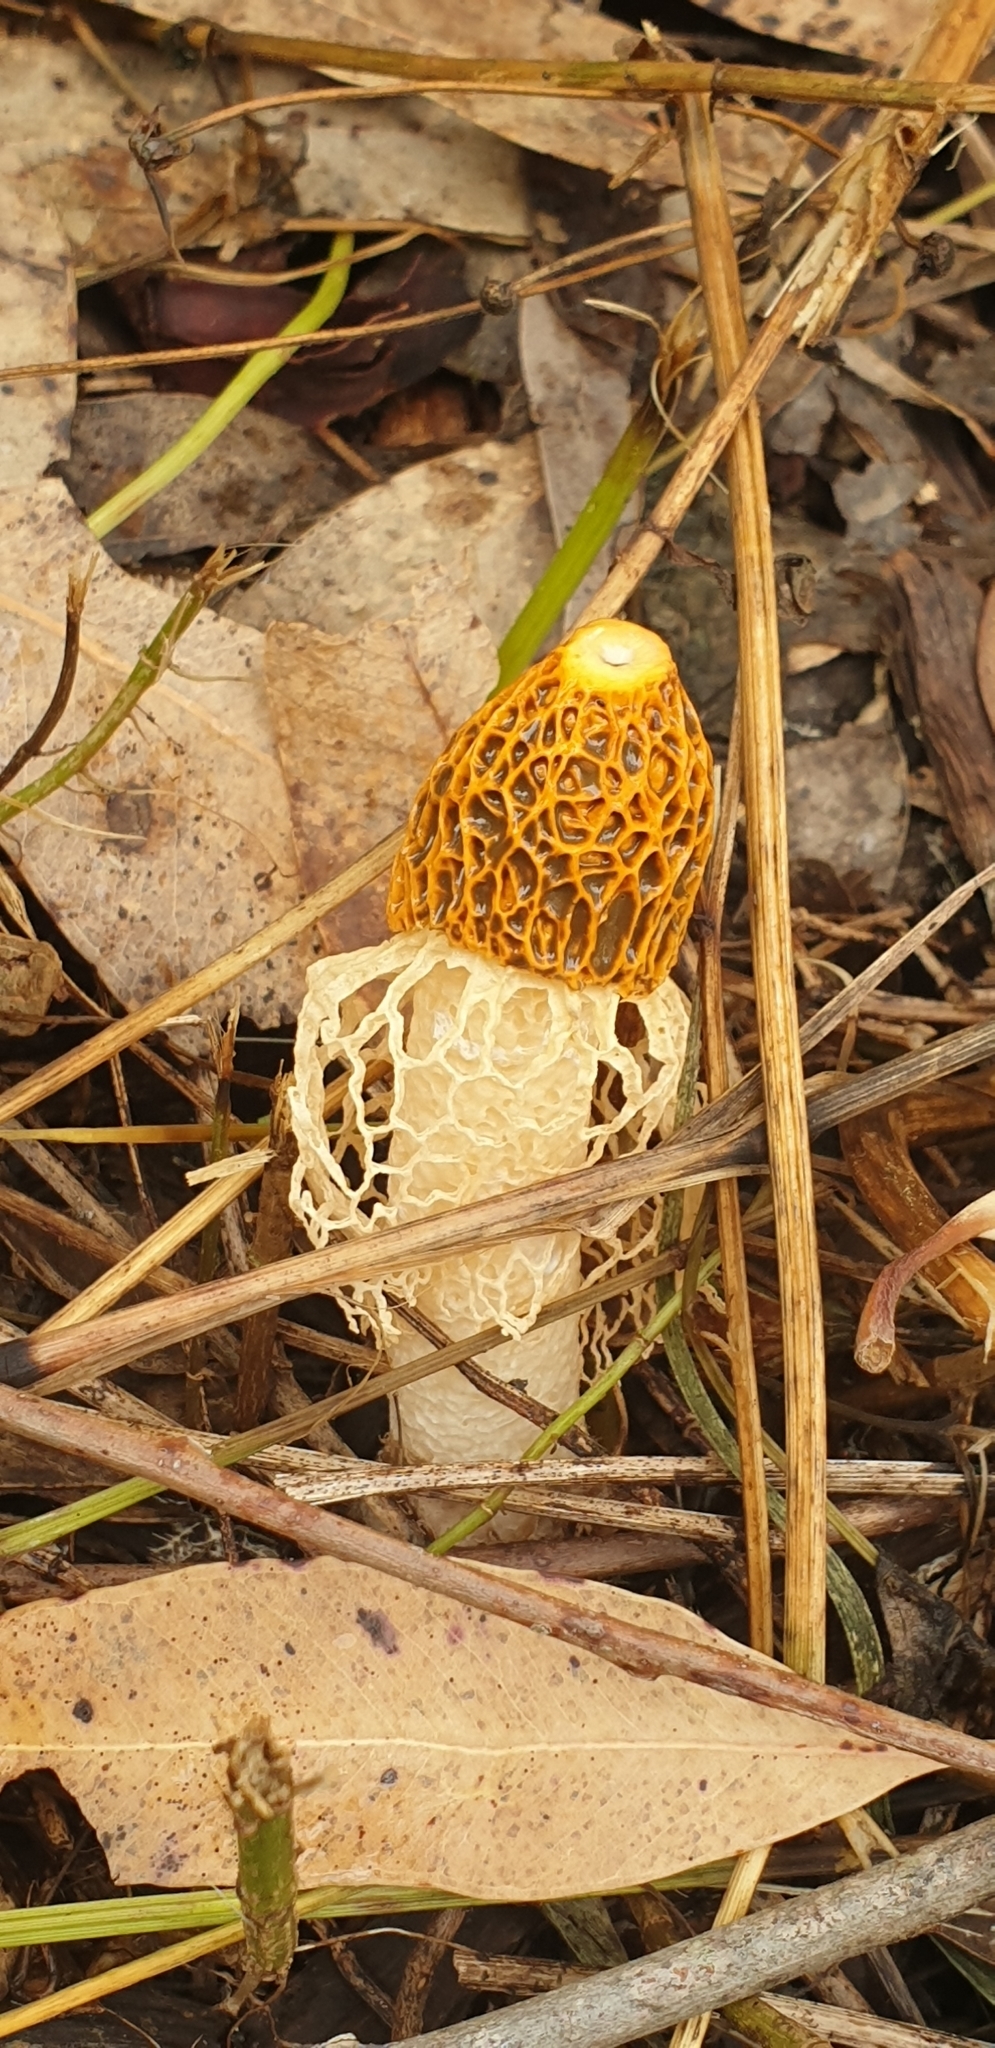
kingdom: Fungi
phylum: Basidiomycota
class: Agaricomycetes
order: Phallales
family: Phallaceae
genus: Phallus
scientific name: Phallus multicolor
